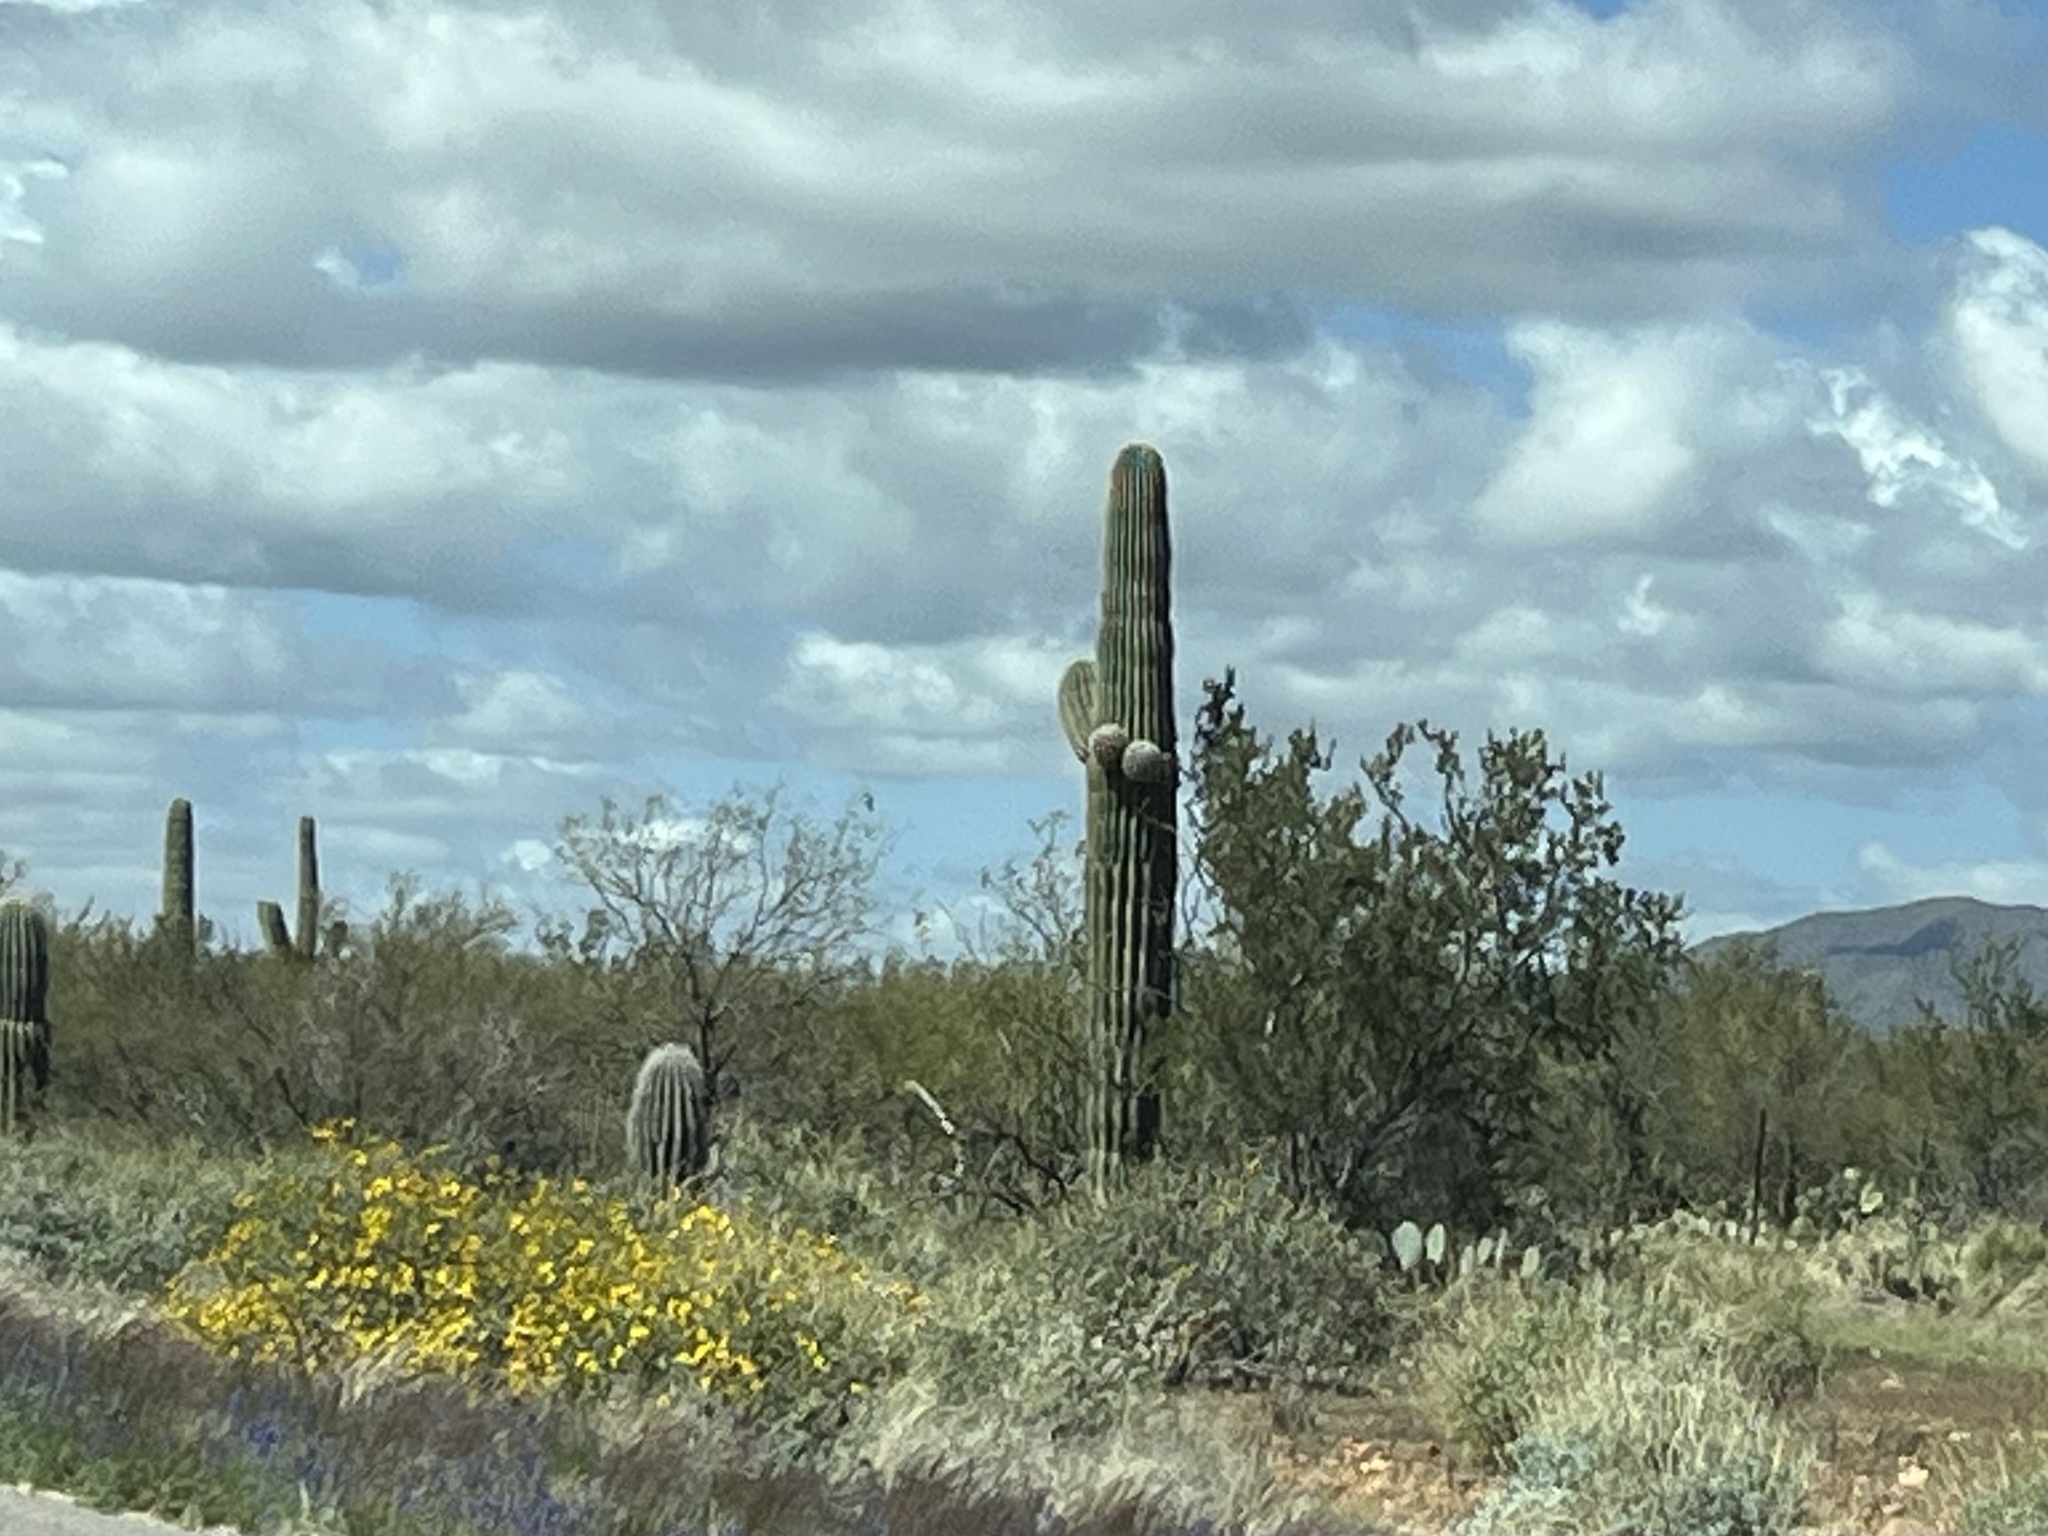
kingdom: Plantae
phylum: Tracheophyta
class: Magnoliopsida
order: Caryophyllales
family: Cactaceae
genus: Carnegiea
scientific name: Carnegiea gigantea
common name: Saguaro
